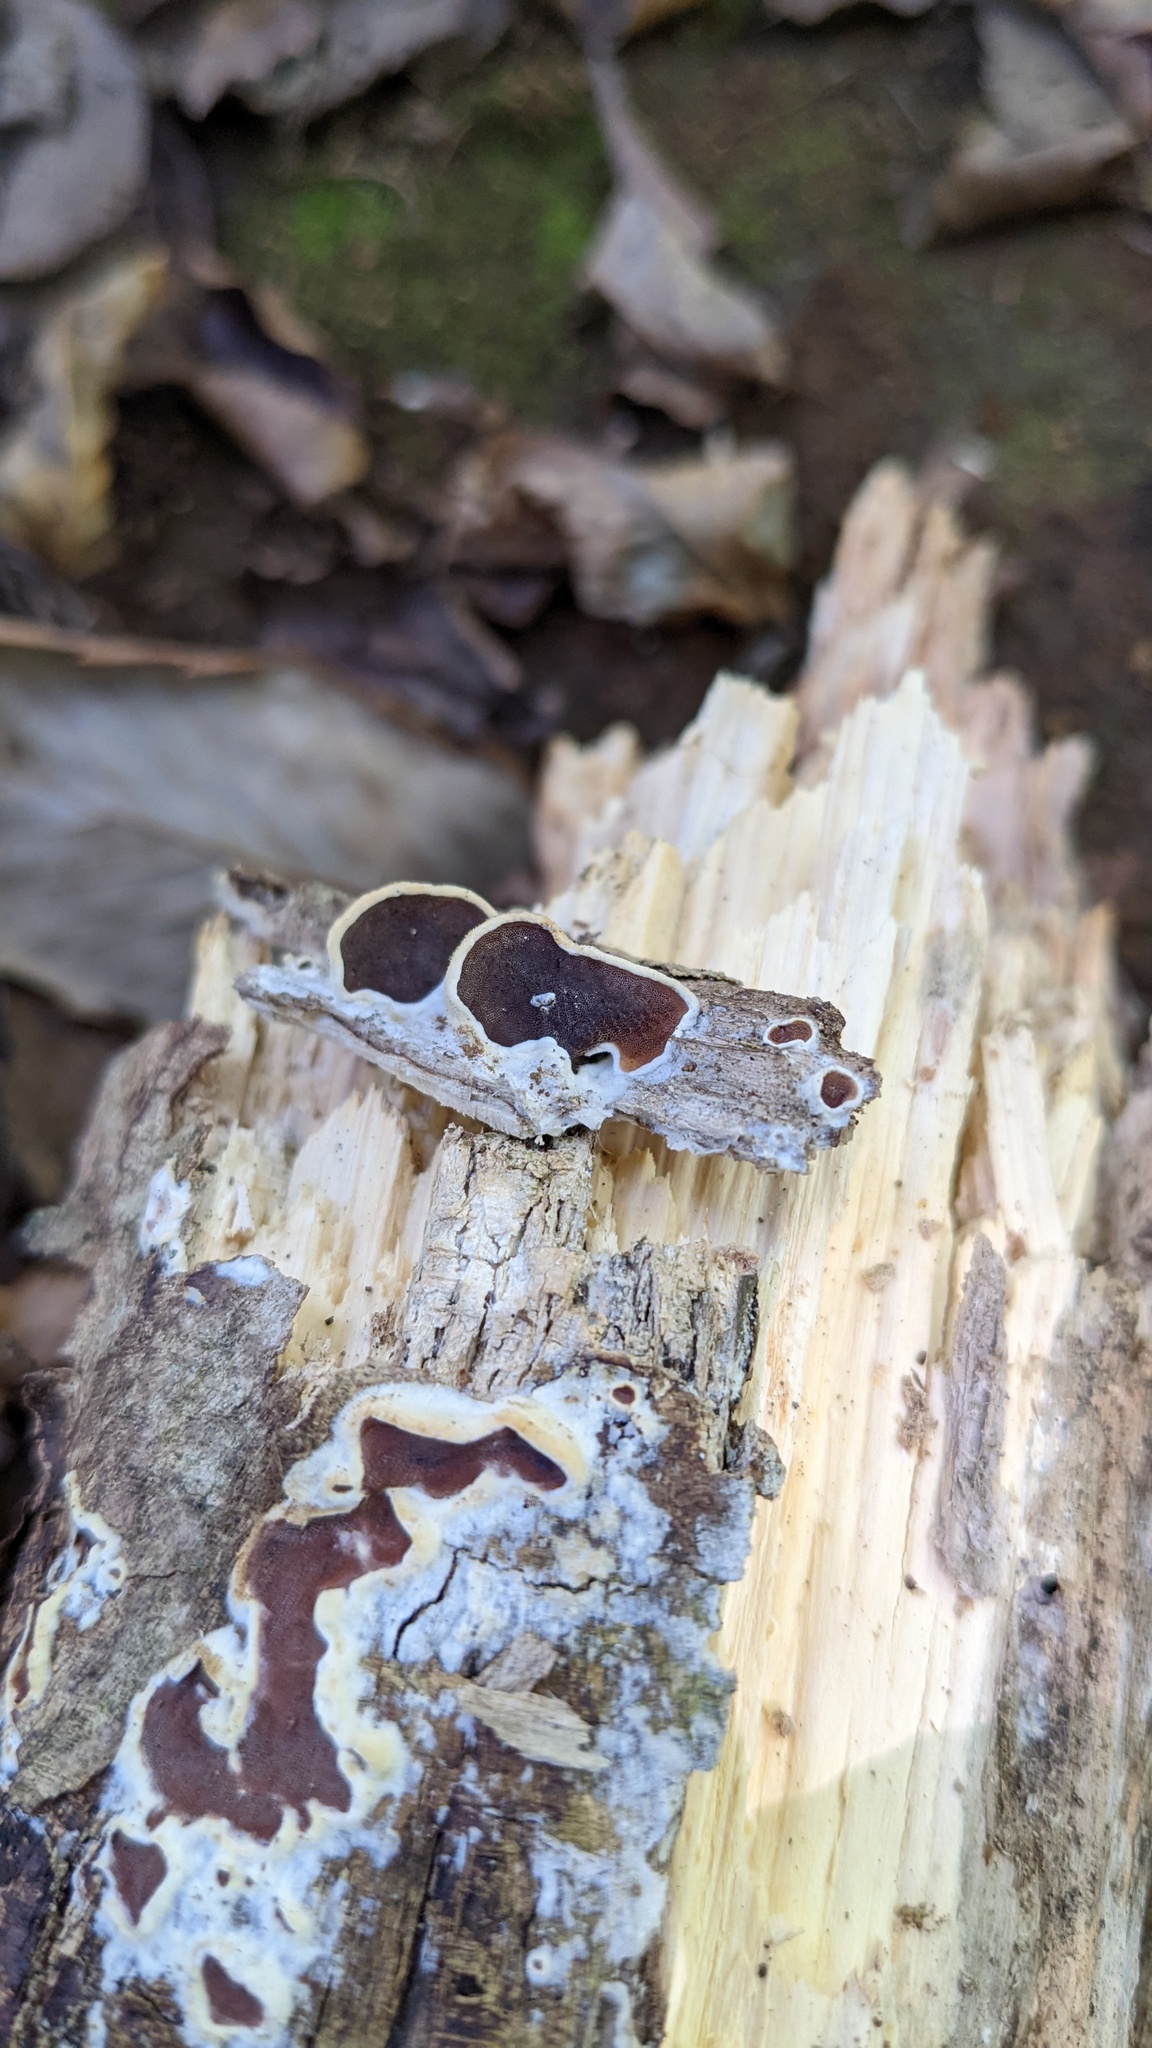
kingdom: Fungi
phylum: Basidiomycota
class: Agaricomycetes
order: Polyporales
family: Irpicaceae
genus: Vitreoporus
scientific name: Vitreoporus dichrous
